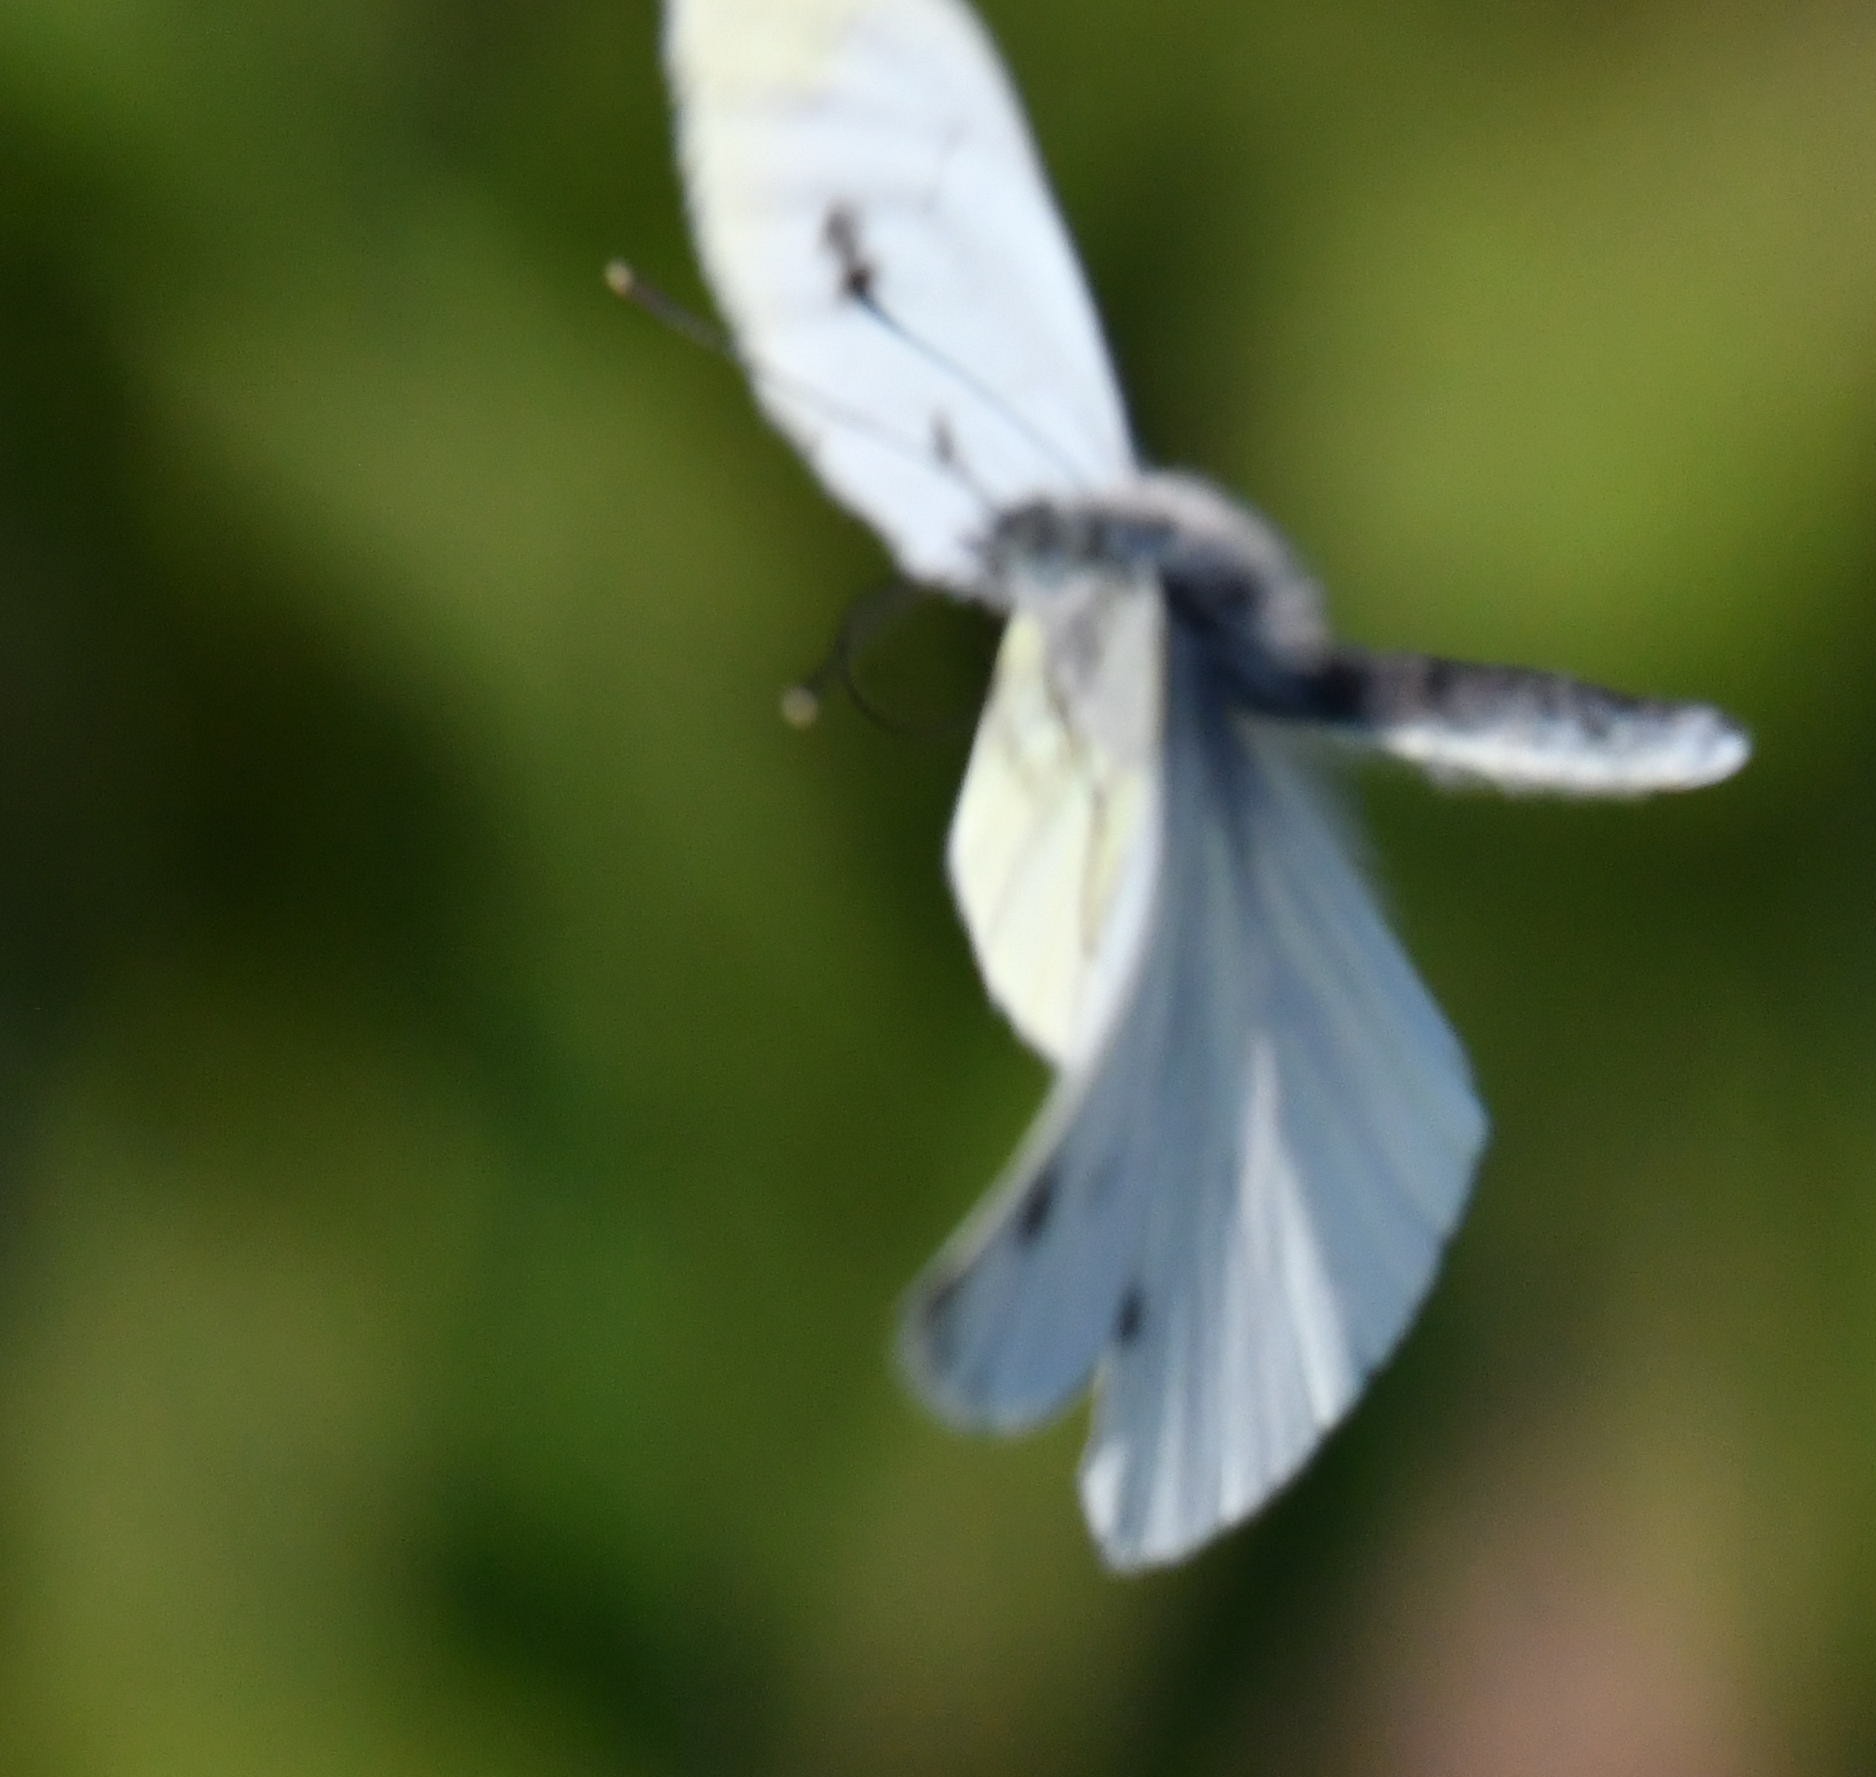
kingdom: Animalia
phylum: Arthropoda
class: Insecta
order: Lepidoptera
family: Pieridae
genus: Pieris
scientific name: Pieris napi
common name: Green-veined white
